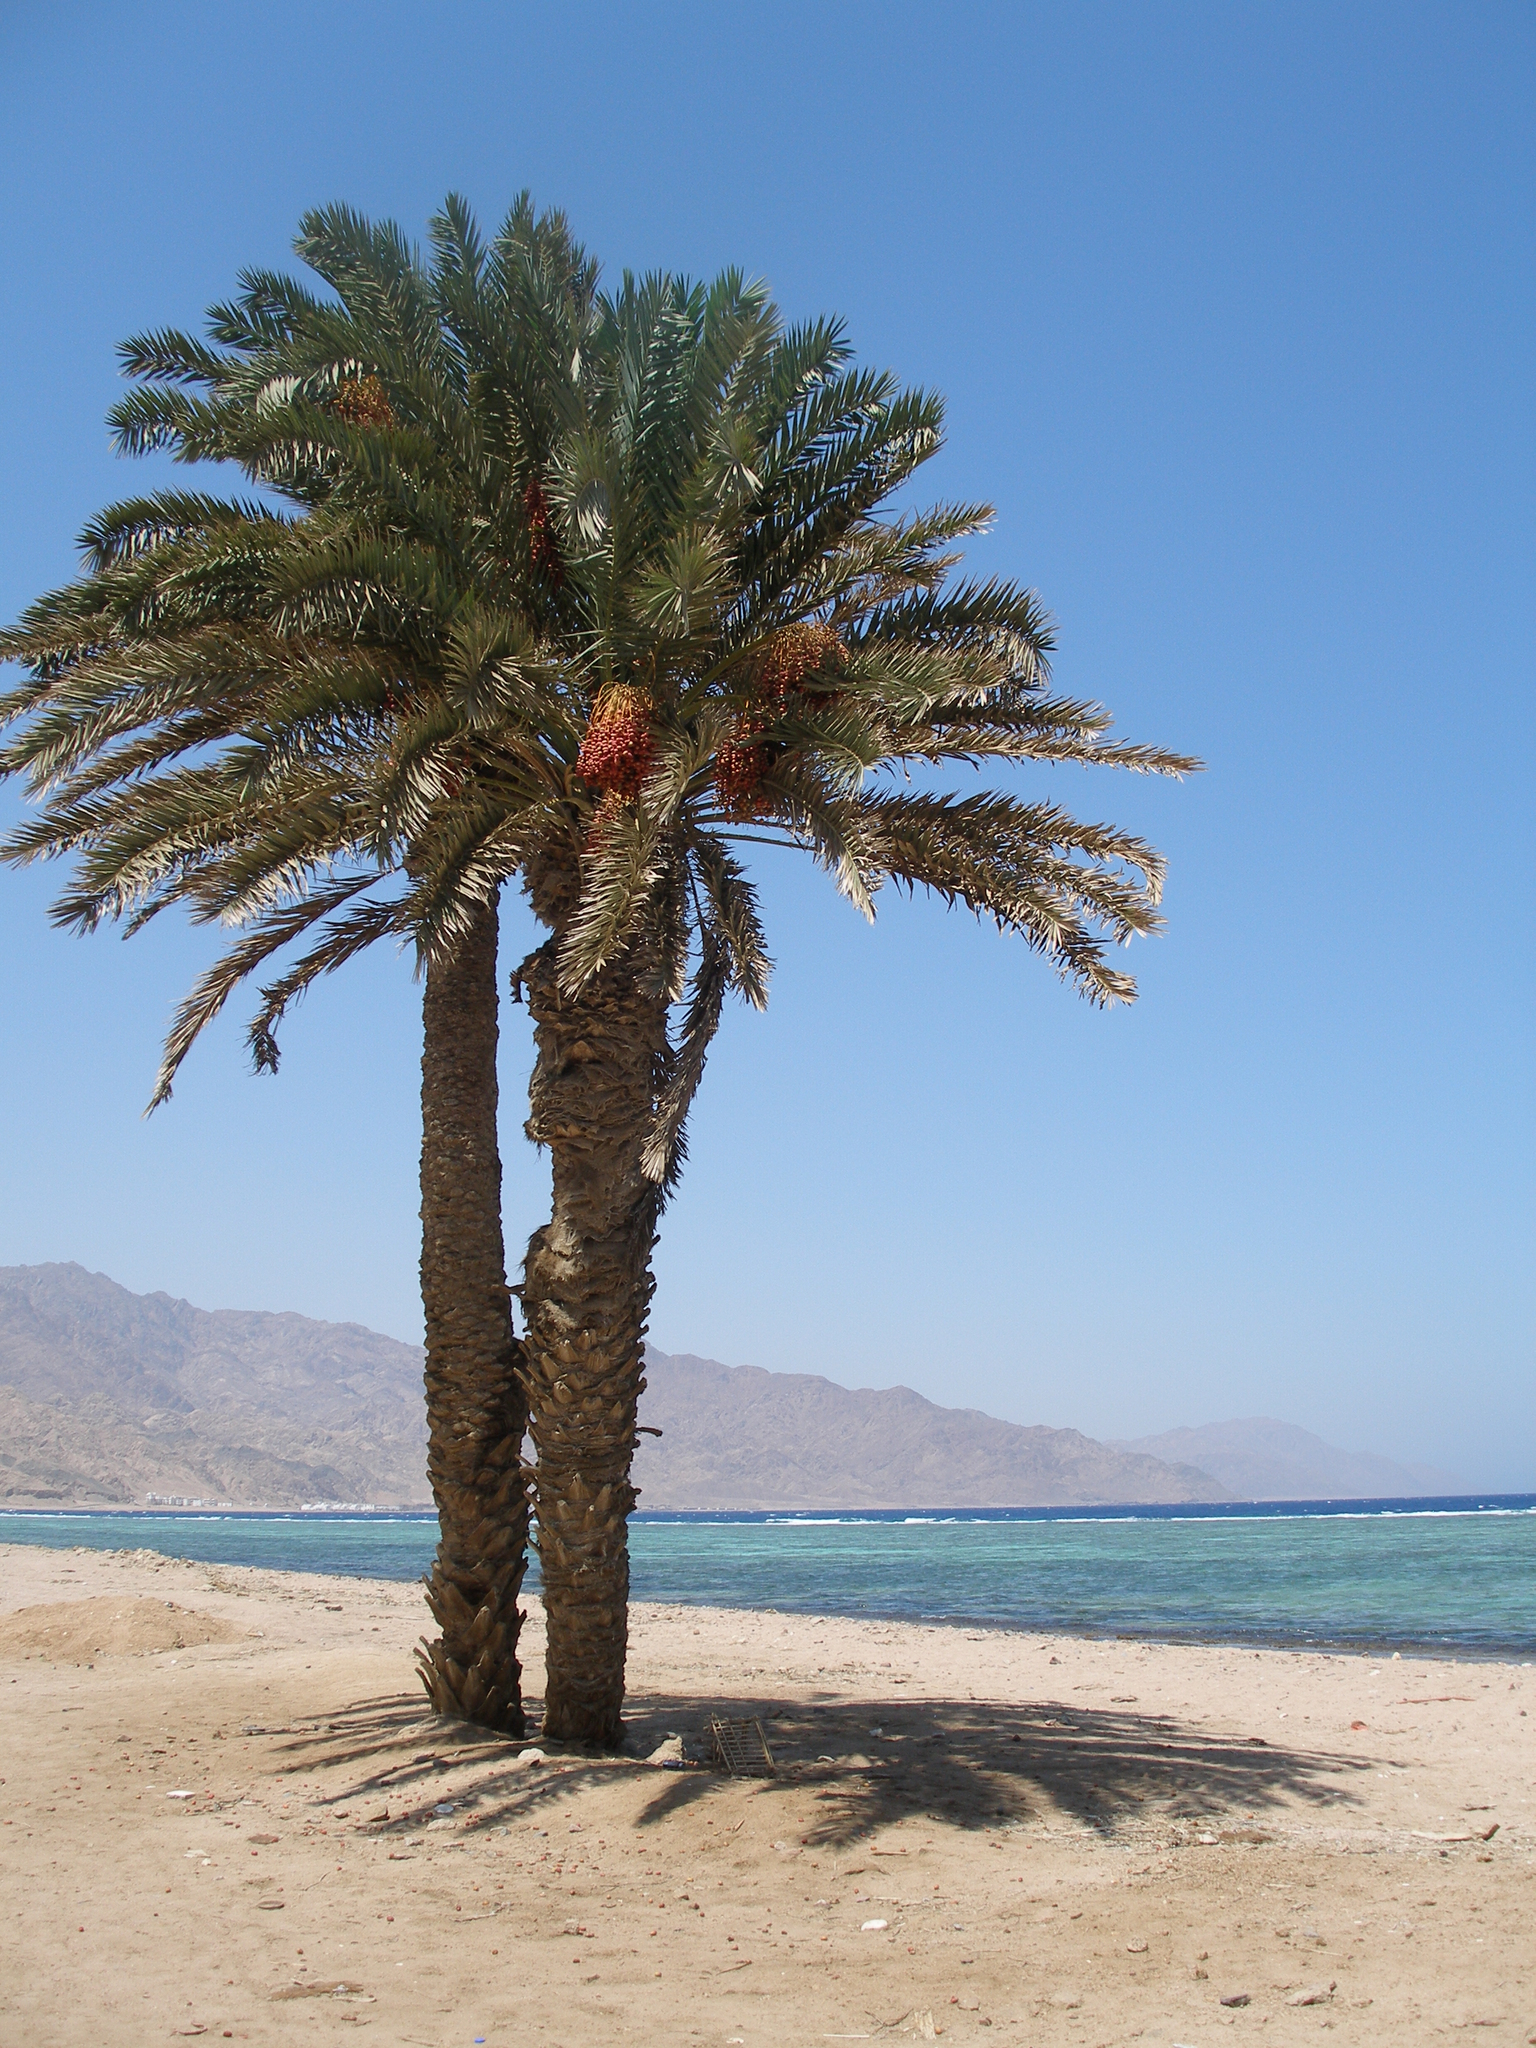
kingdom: Plantae
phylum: Tracheophyta
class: Liliopsida
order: Arecales
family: Arecaceae
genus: Phoenix
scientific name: Phoenix dactylifera
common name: Date palm
